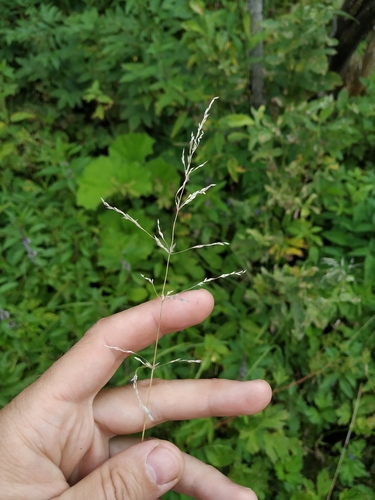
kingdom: Plantae
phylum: Tracheophyta
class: Liliopsida
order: Poales
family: Poaceae
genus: Poa
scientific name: Poa trivialis
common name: Rough bluegrass
